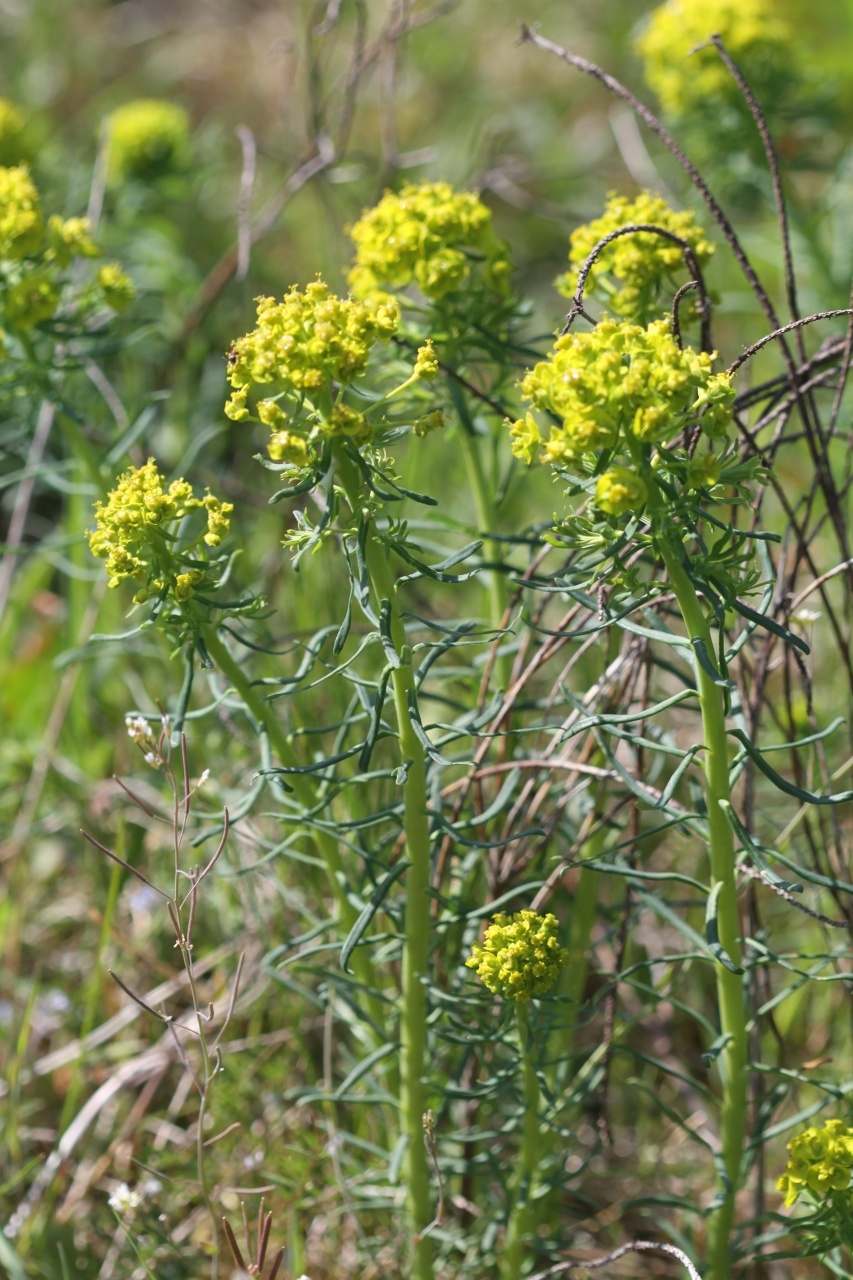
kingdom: Plantae
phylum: Tracheophyta
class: Magnoliopsida
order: Malpighiales
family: Euphorbiaceae
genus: Euphorbia
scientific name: Euphorbia cyparissias
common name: Cypress spurge
